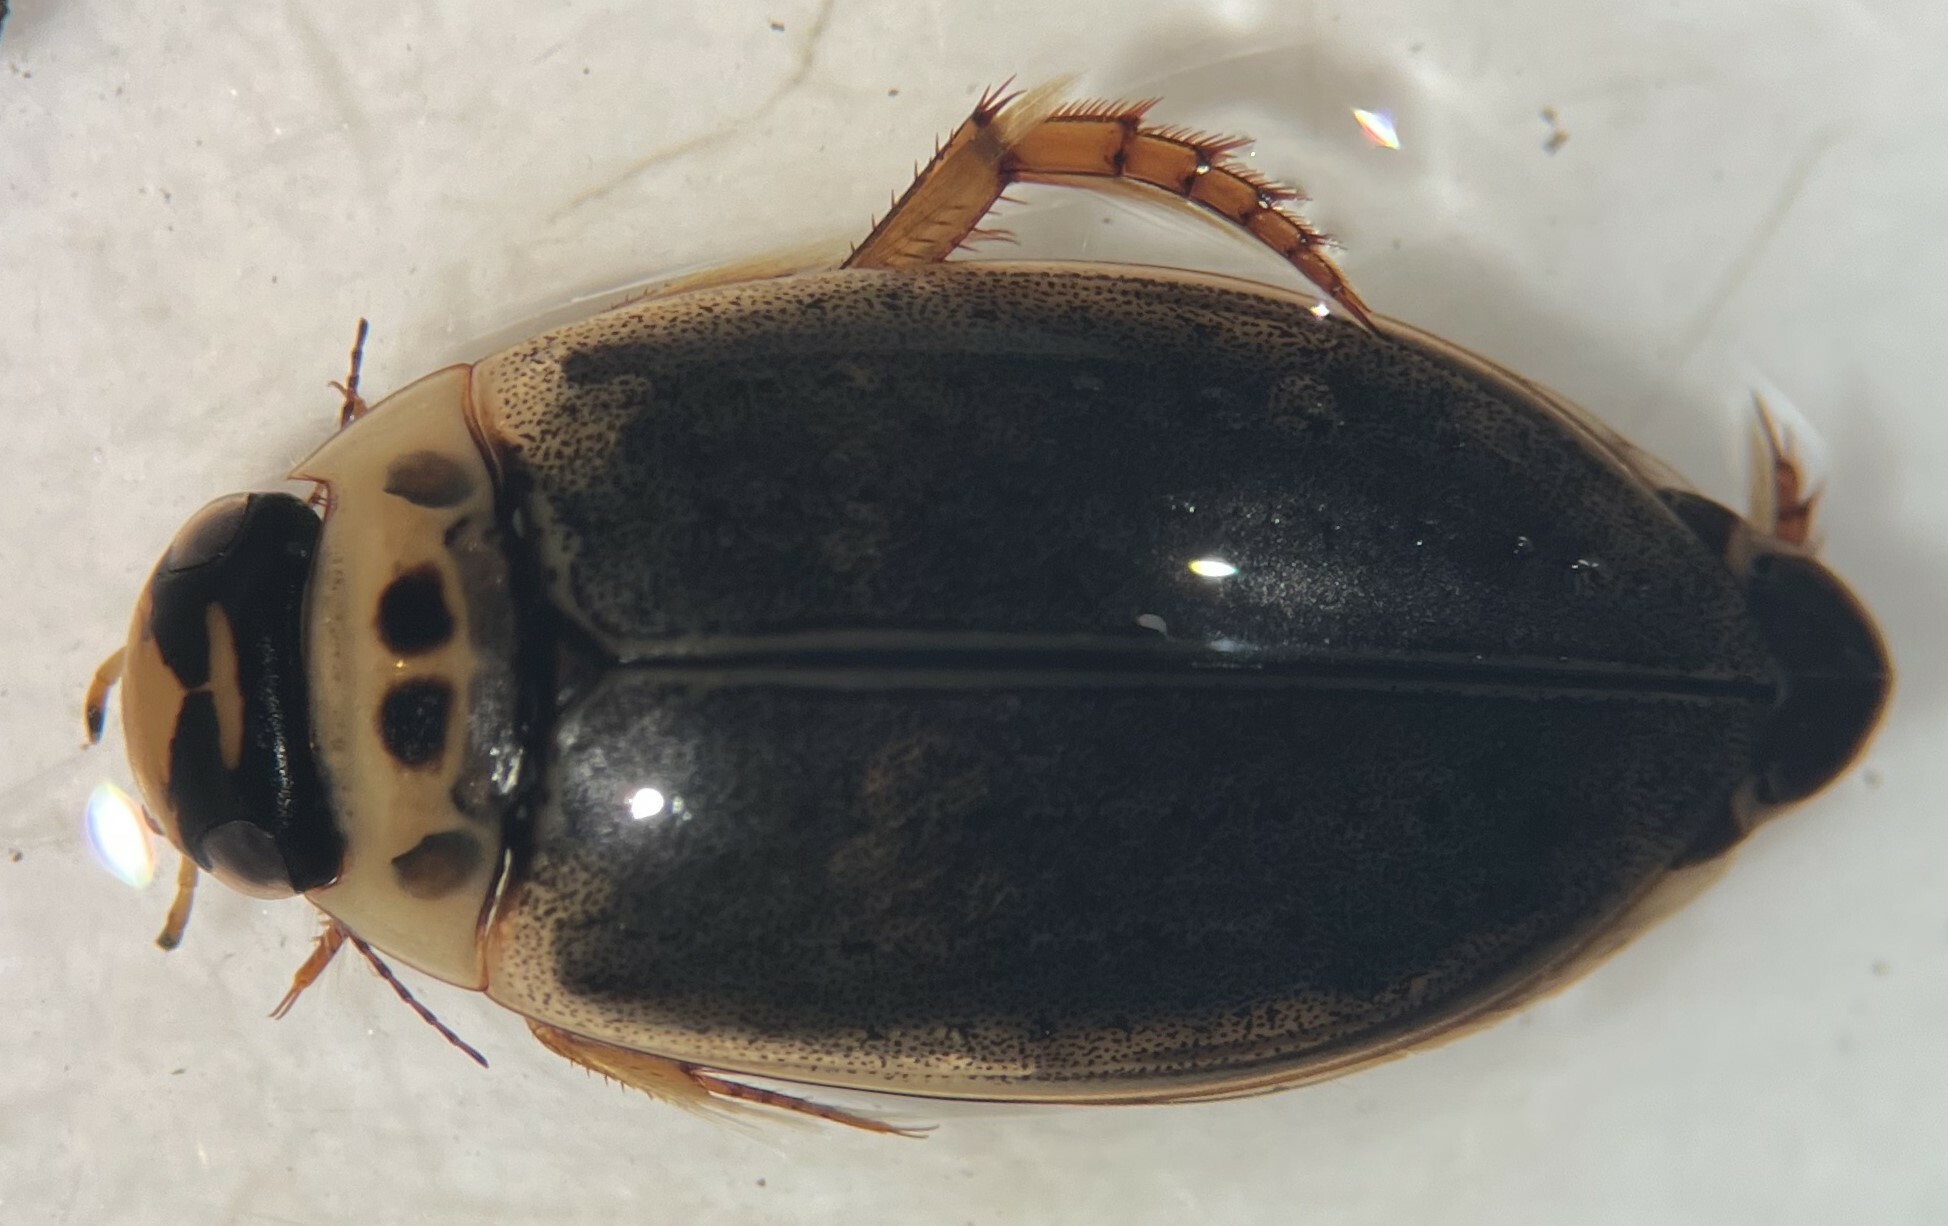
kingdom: Animalia
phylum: Arthropoda
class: Insecta
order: Coleoptera
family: Dytiscidae
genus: Rhantus
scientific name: Rhantus gutticollis
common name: Predaceous diving beetle
